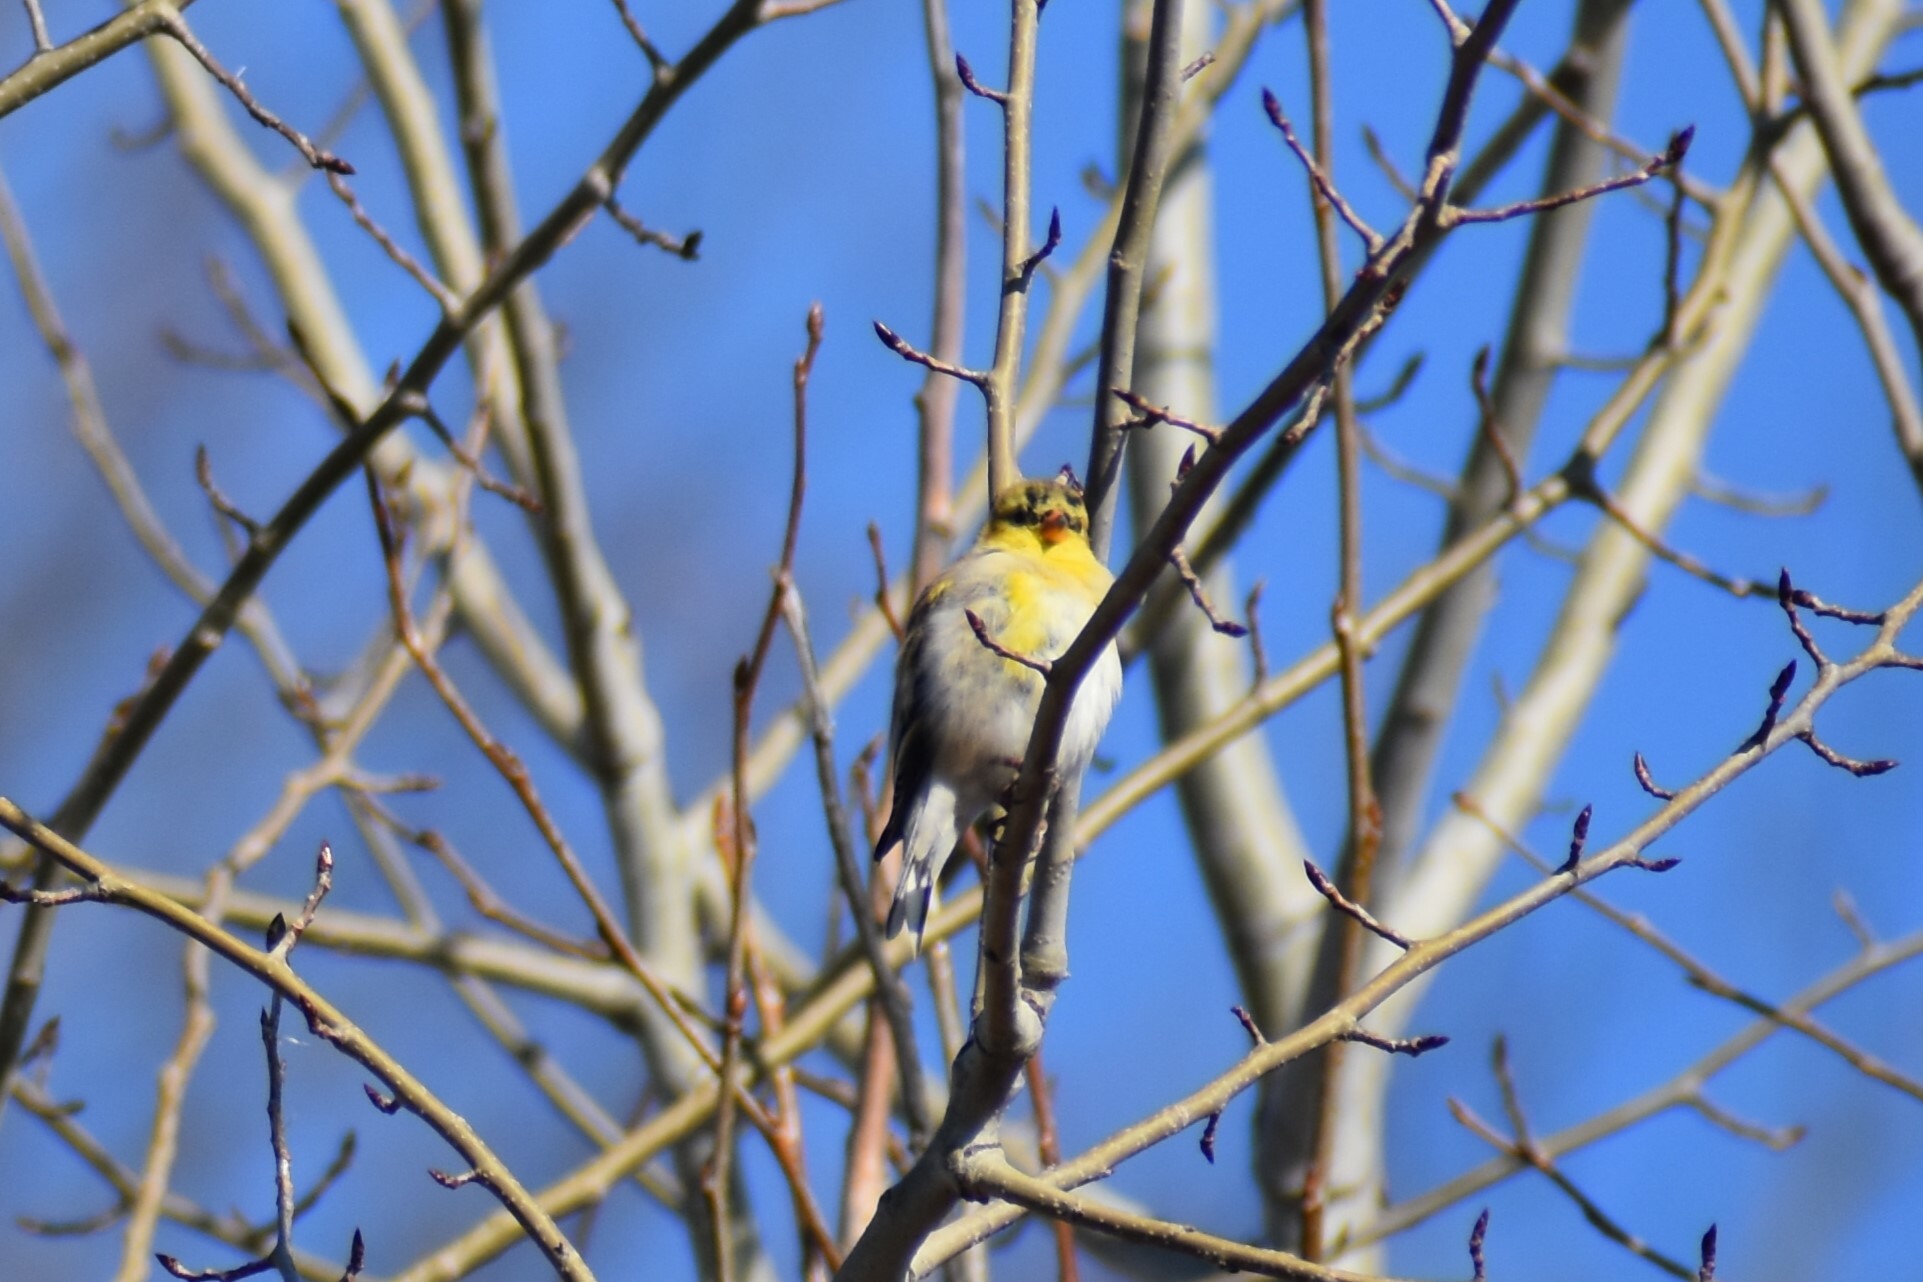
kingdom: Animalia
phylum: Chordata
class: Aves
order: Passeriformes
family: Fringillidae
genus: Spinus
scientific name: Spinus tristis
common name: American goldfinch
